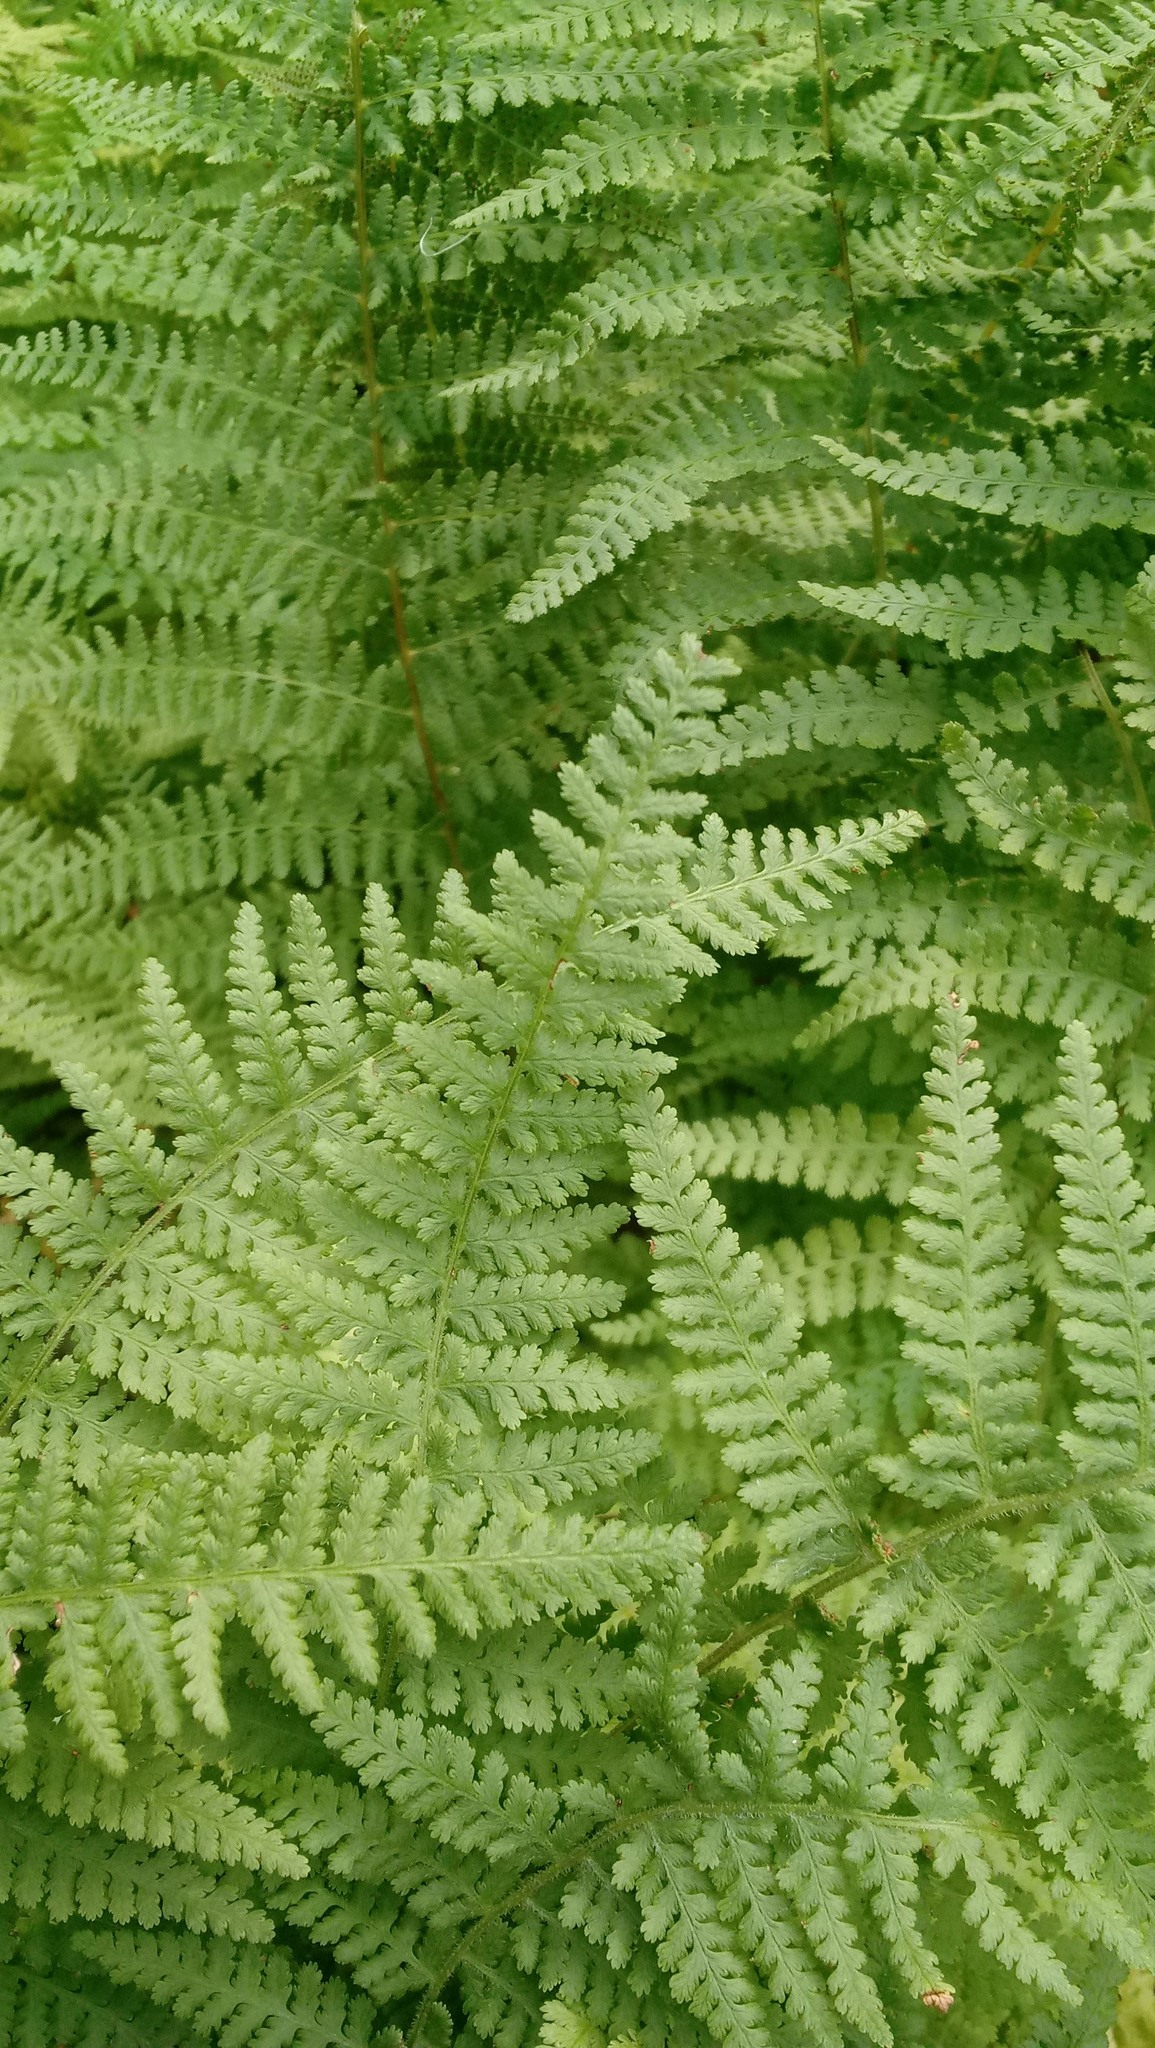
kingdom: Plantae
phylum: Tracheophyta
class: Polypodiopsida
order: Polypodiales
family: Dennstaedtiaceae
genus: Sitobolium
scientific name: Sitobolium punctilobum
